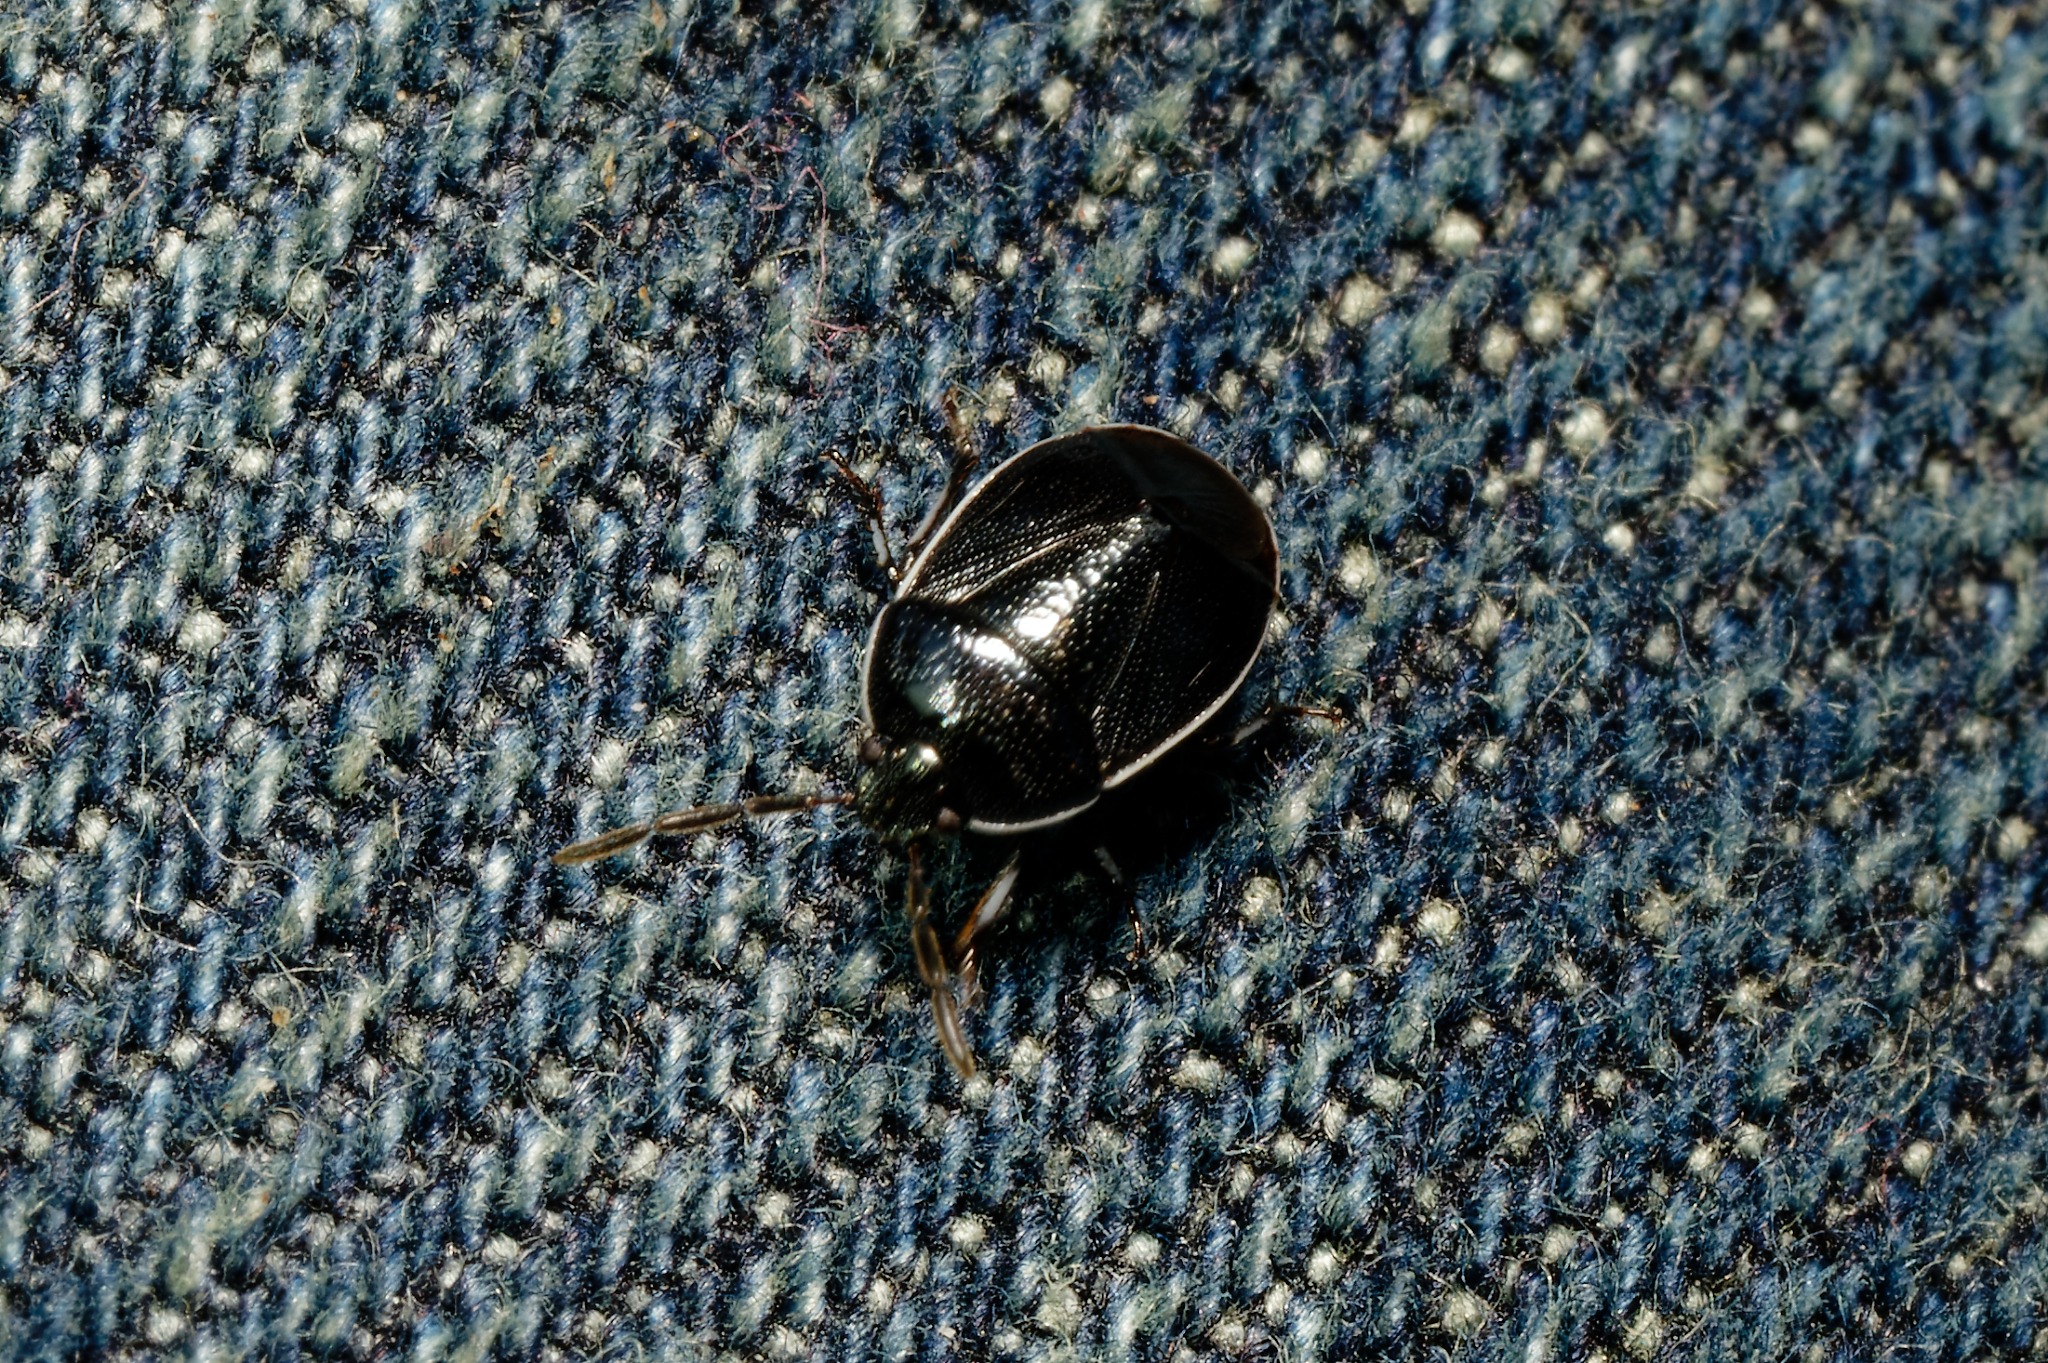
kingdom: Animalia
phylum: Arthropoda
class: Insecta
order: Hemiptera
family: Cydnidae
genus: Sehirus
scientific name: Sehirus cinctus
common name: White-margined burrower bug
